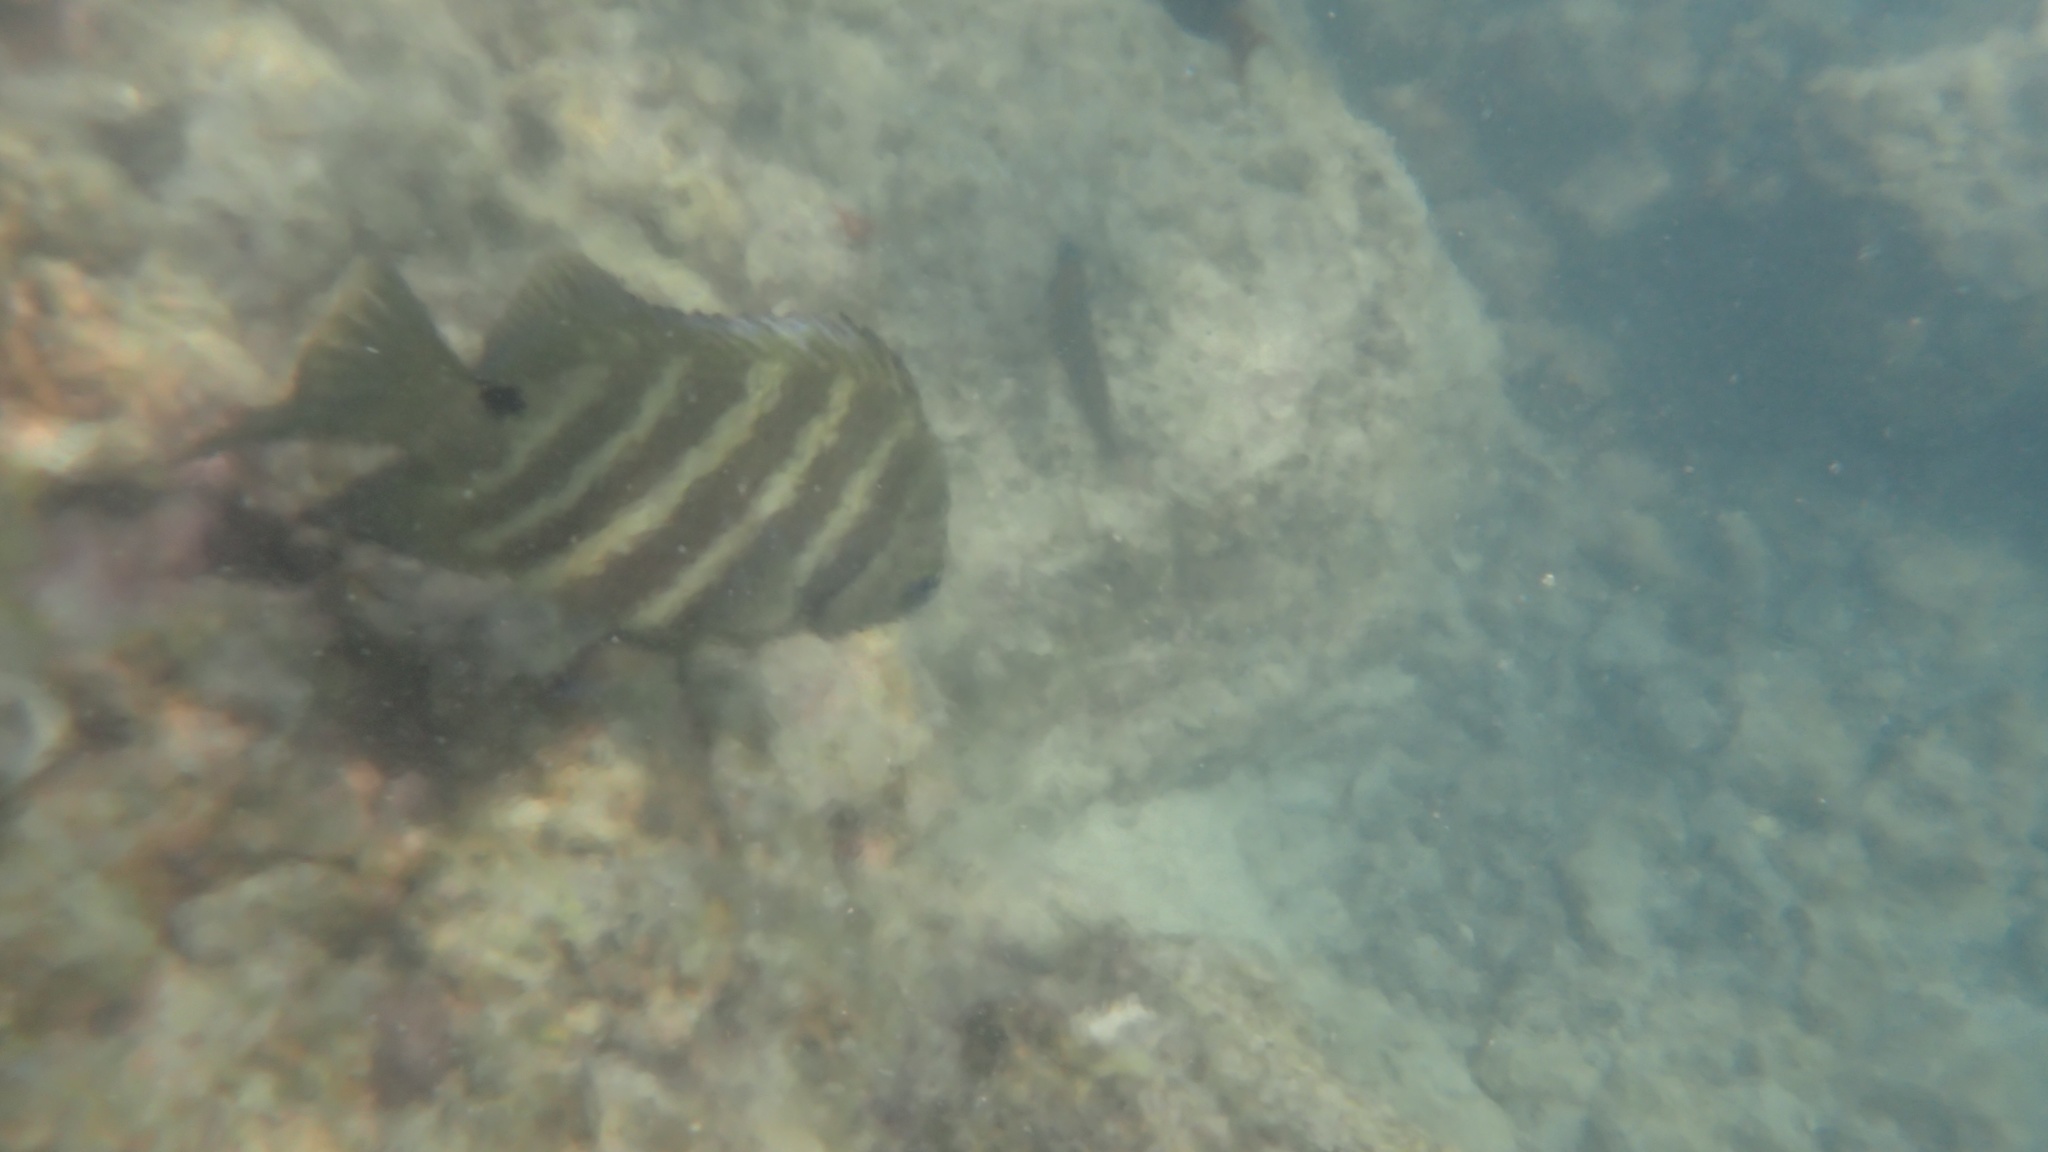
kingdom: Animalia
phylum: Chordata
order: Perciformes
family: Pomacentridae
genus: Abudefduf
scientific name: Abudefduf sordidus
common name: Blackspot sergeant
